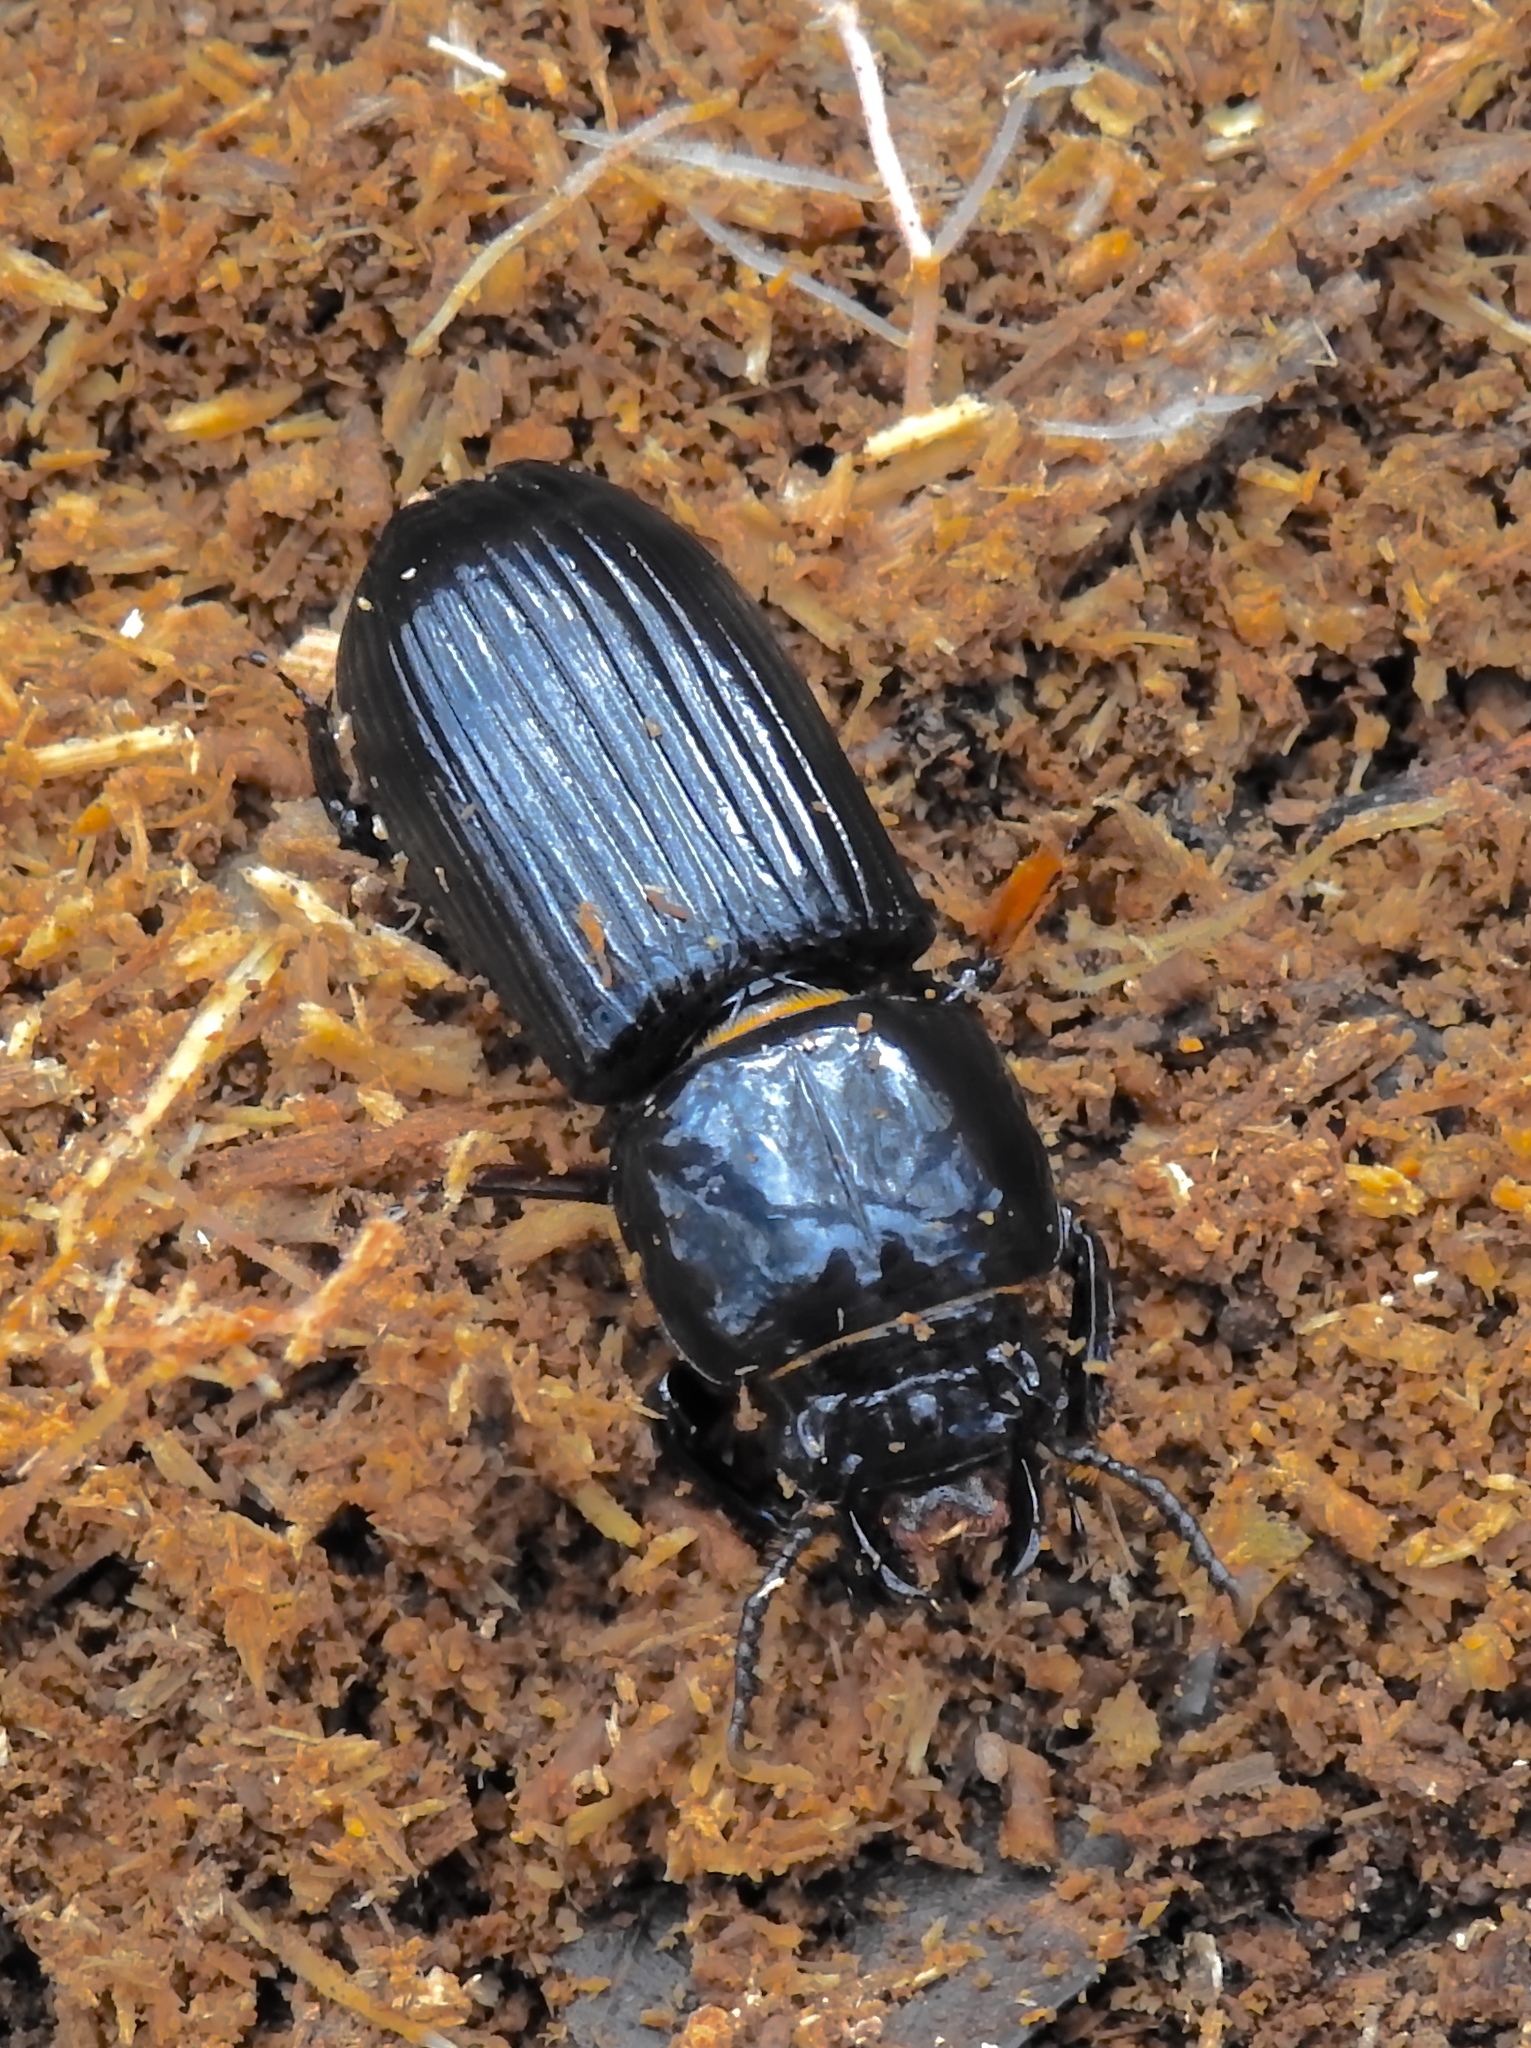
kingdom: Animalia
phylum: Arthropoda
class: Insecta
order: Coleoptera
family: Passalidae
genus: Odontotaenius
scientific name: Odontotaenius disjunctus
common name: Patent leather beetle
